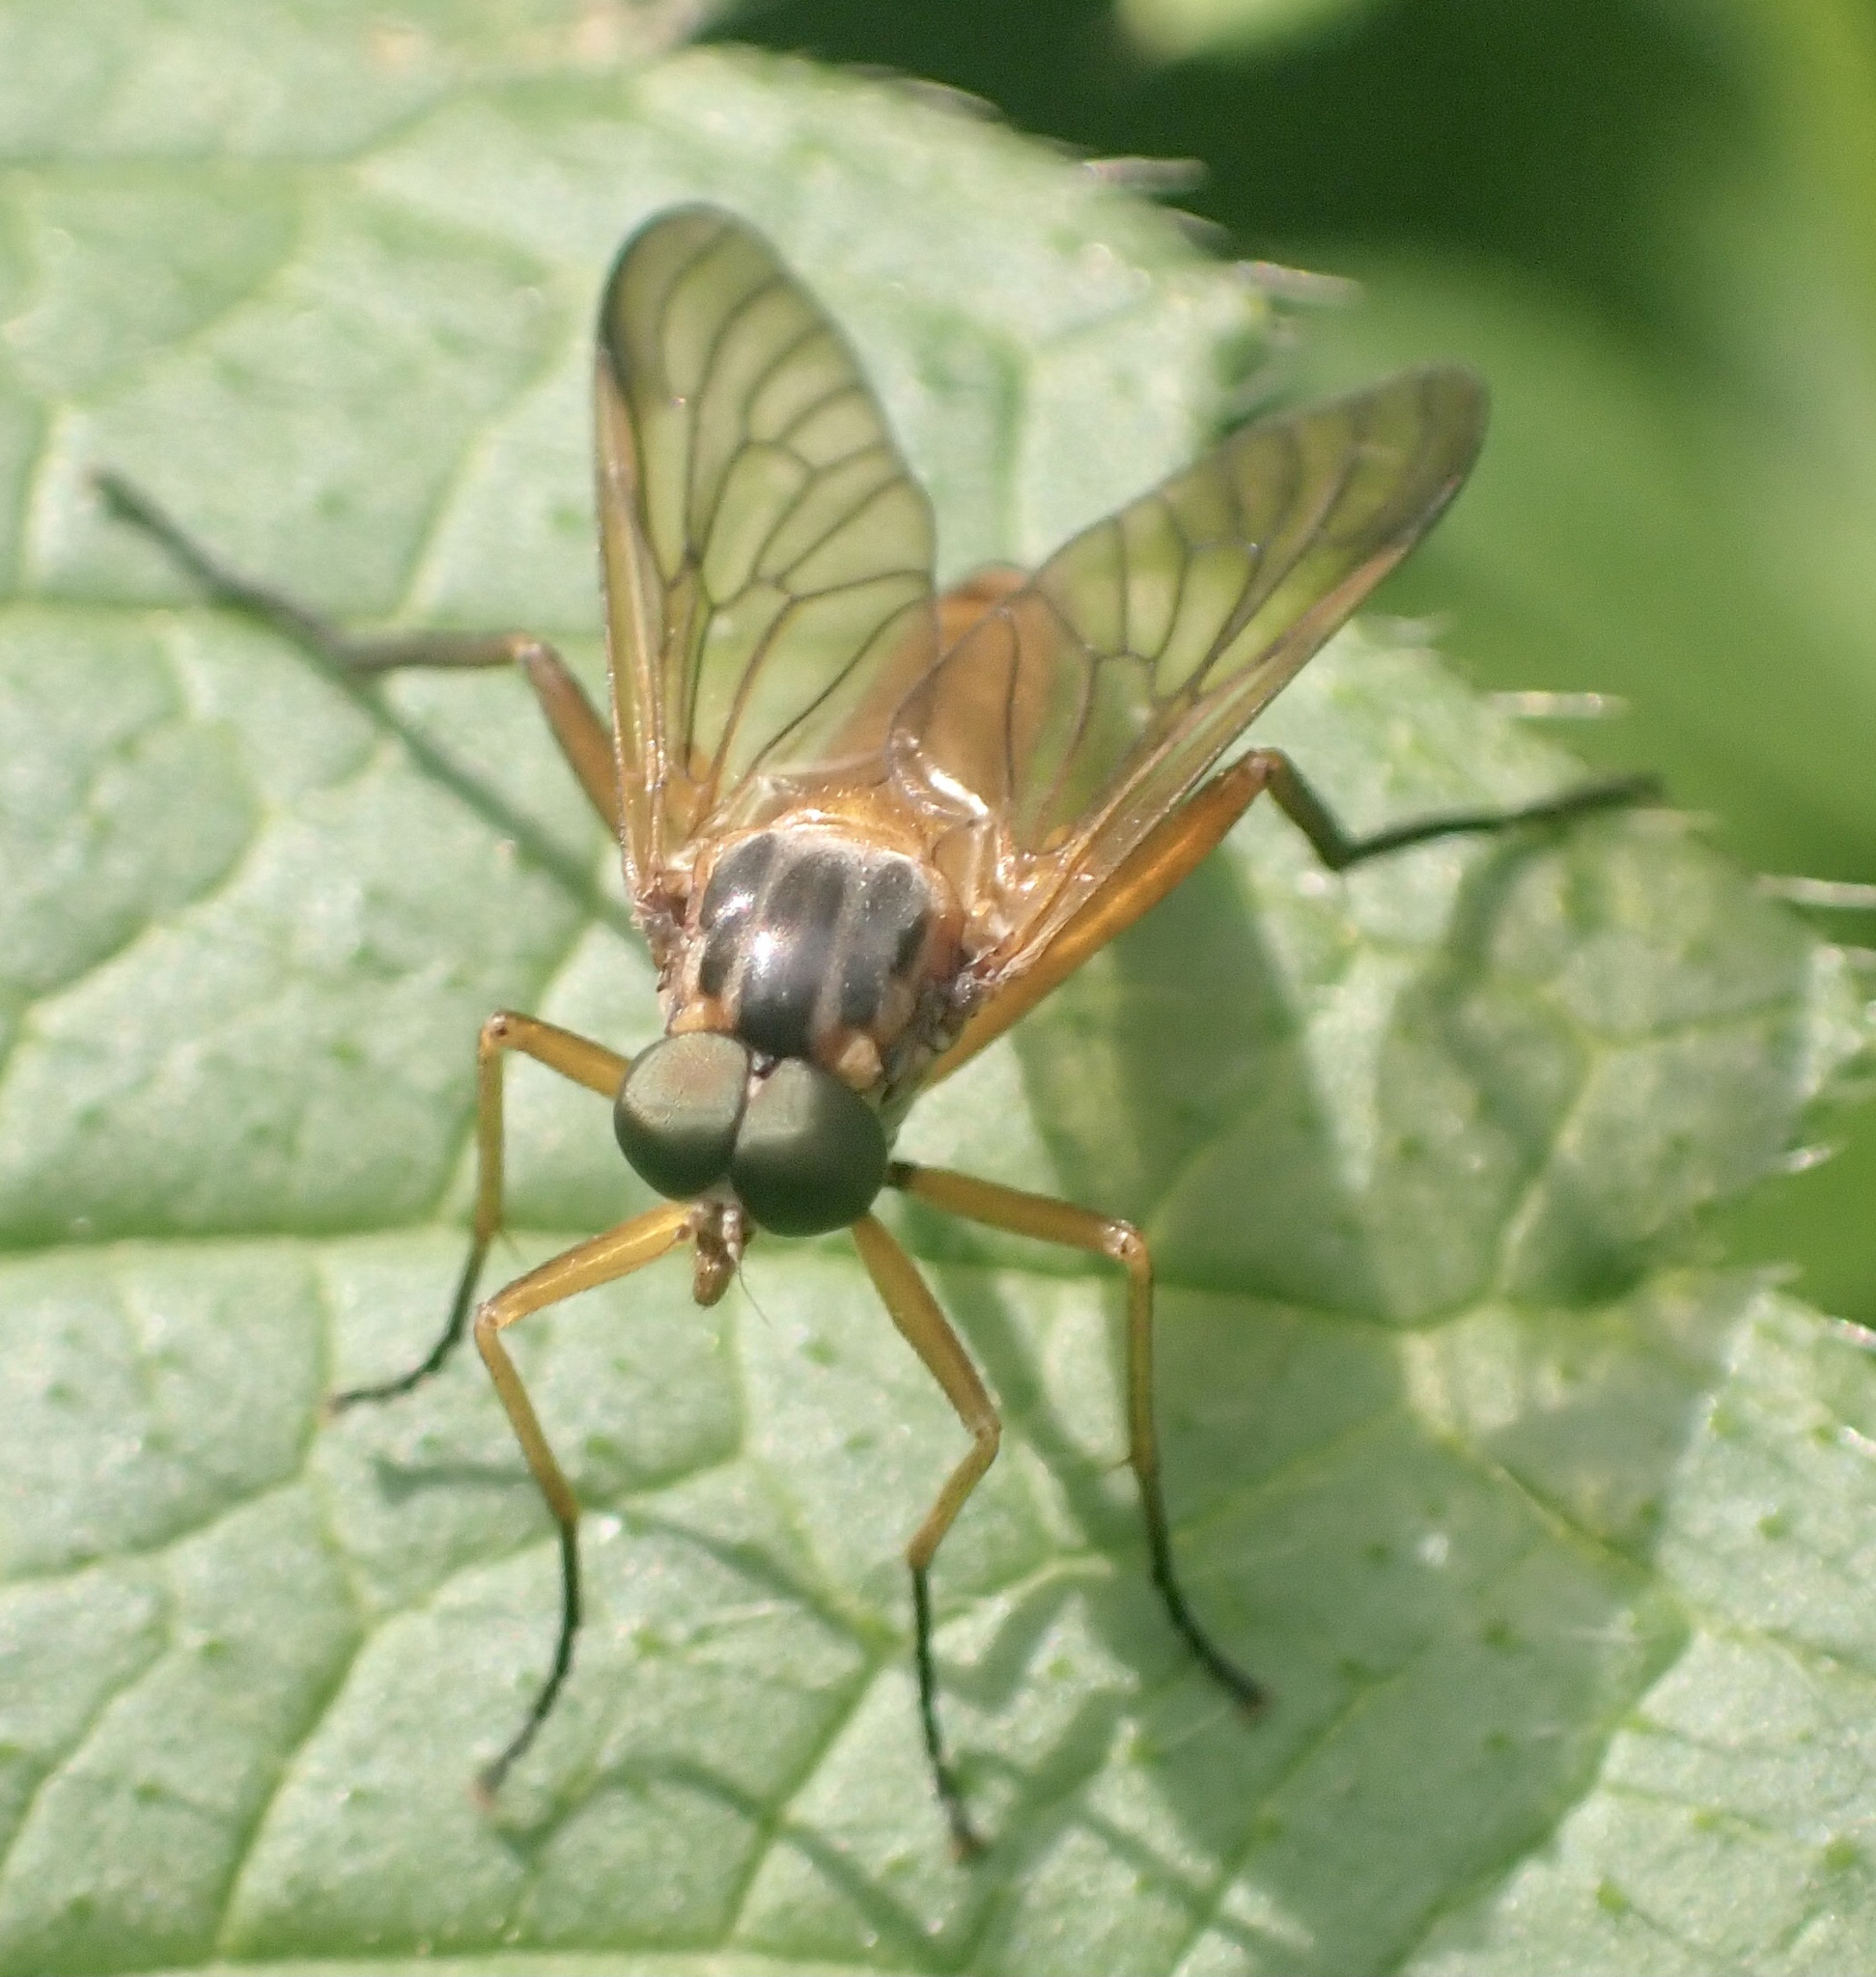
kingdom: Animalia
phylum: Arthropoda
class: Insecta
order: Diptera
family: Rhagionidae
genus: Rhagio
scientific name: Rhagio immaculatus
